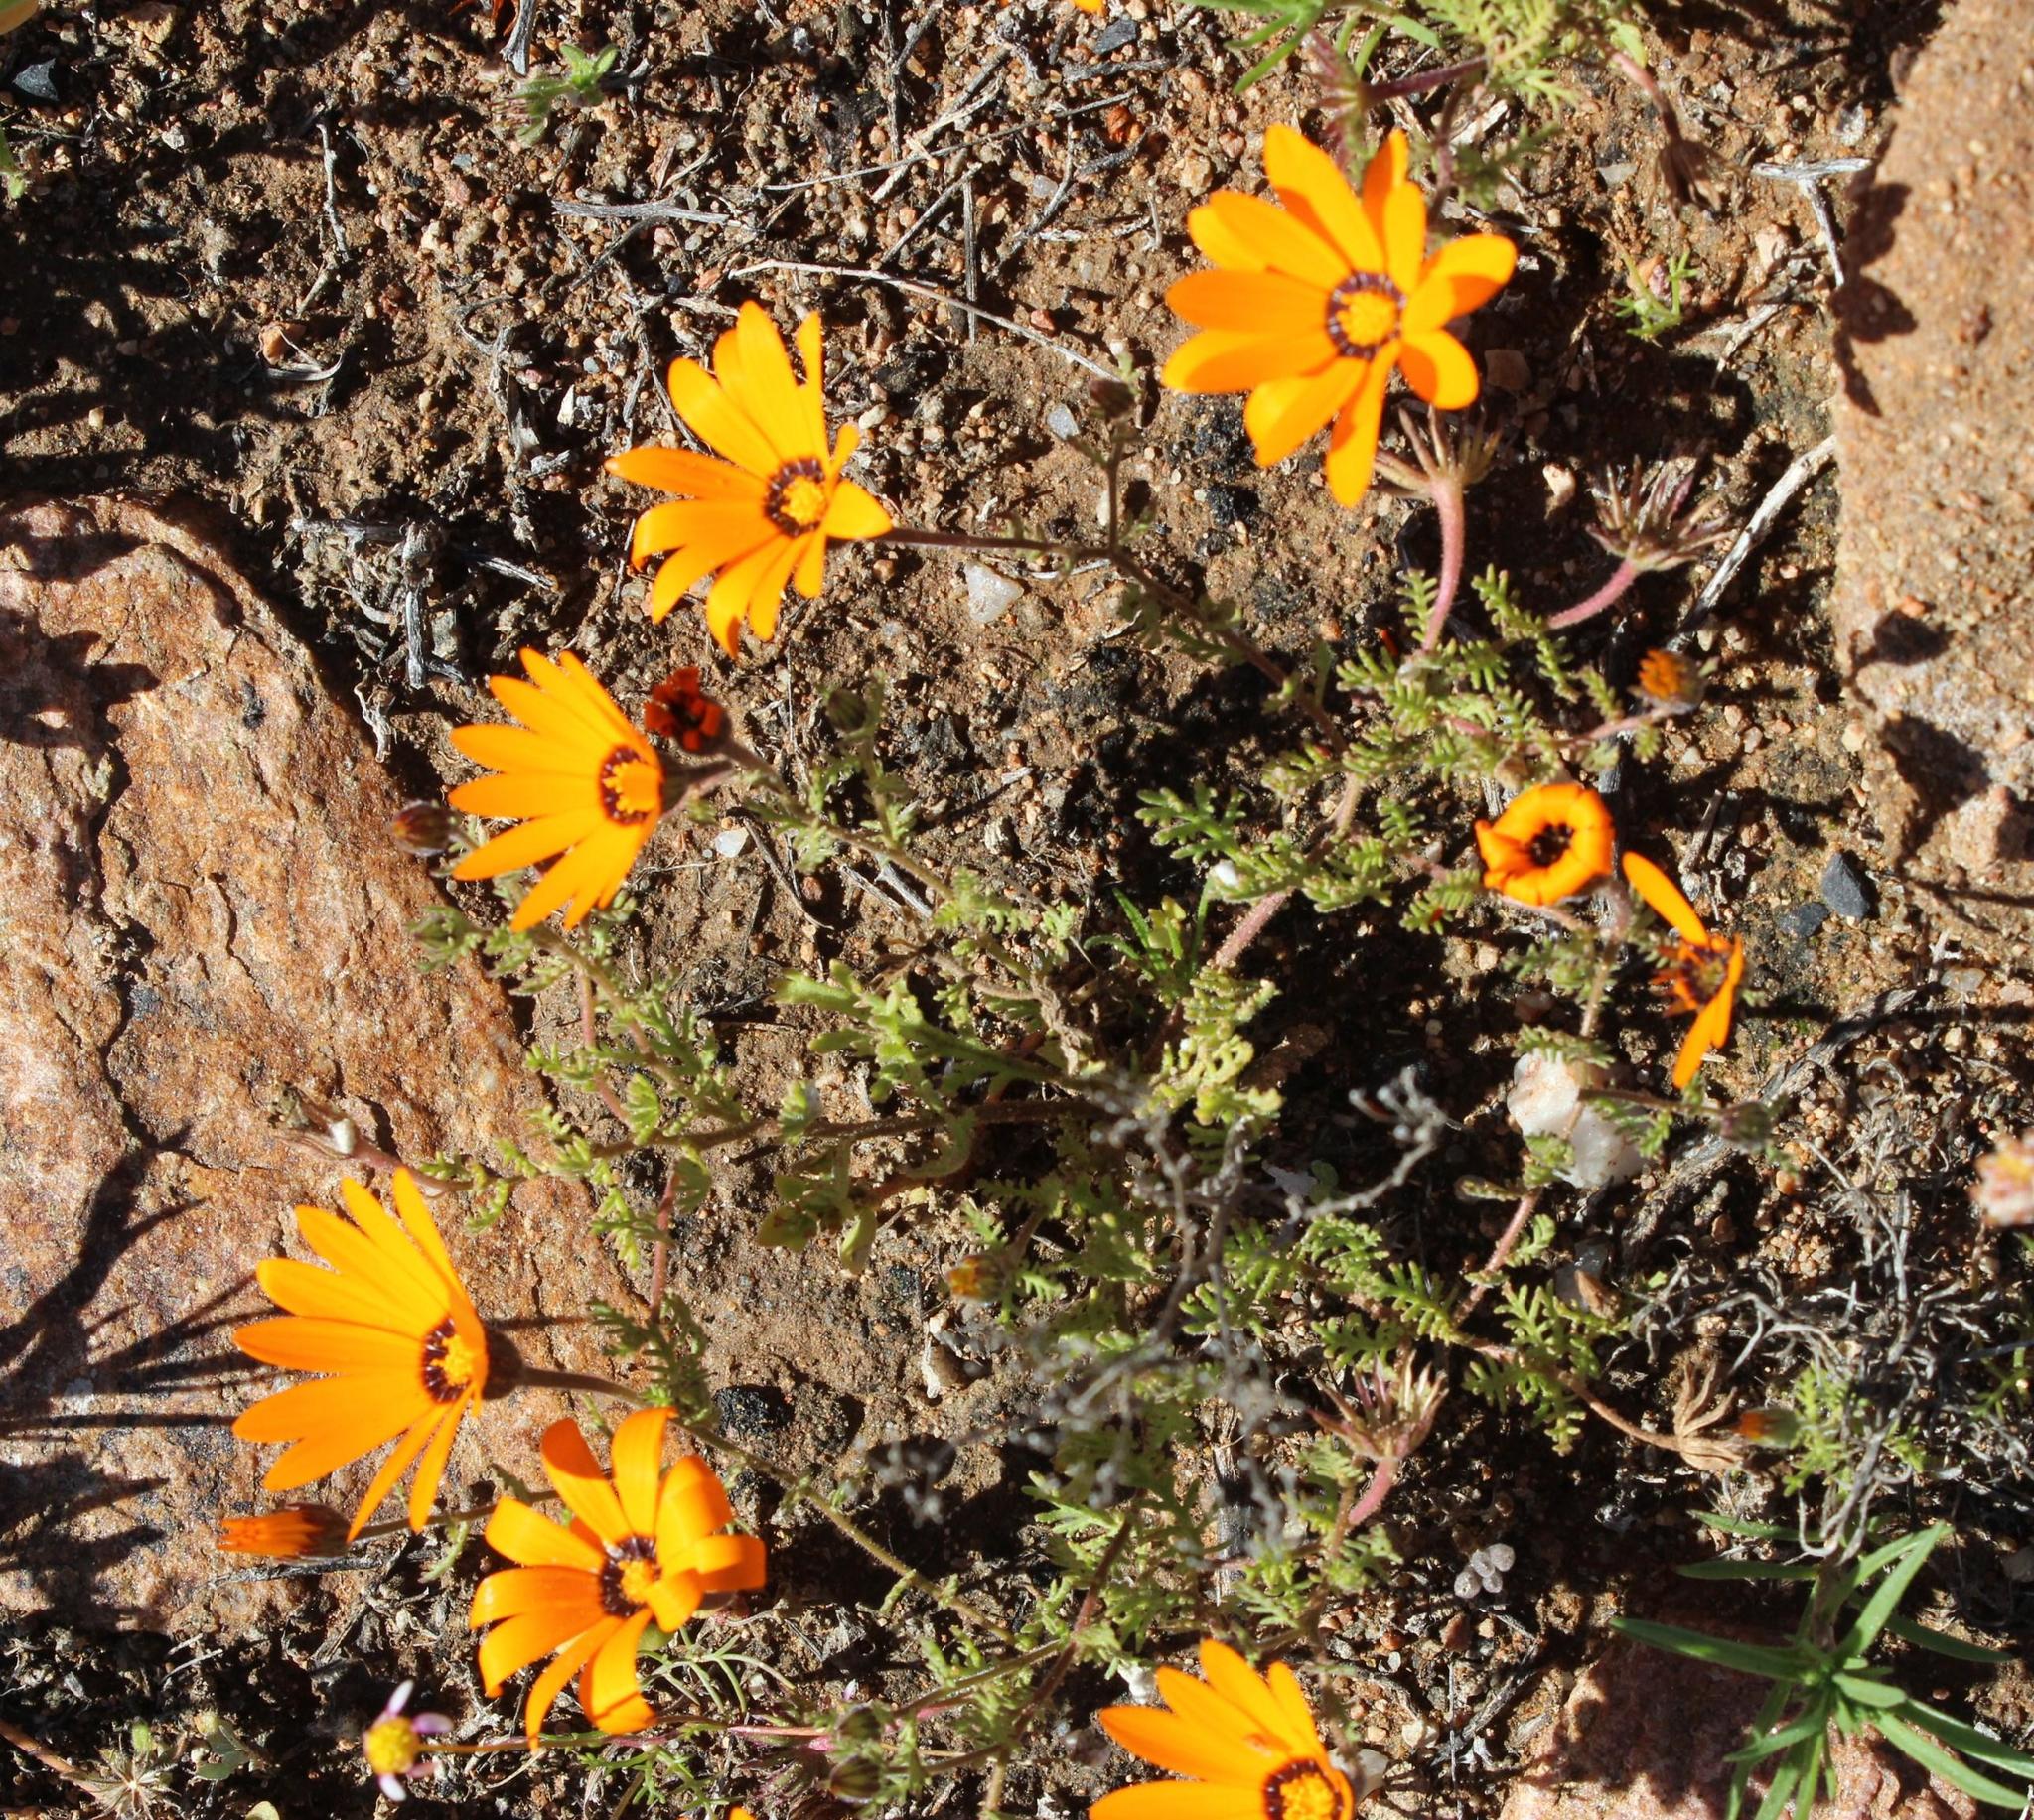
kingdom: Plantae
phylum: Tracheophyta
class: Magnoliopsida
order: Asterales
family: Asteraceae
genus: Dimorphotheca
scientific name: Dimorphotheca pinnata
